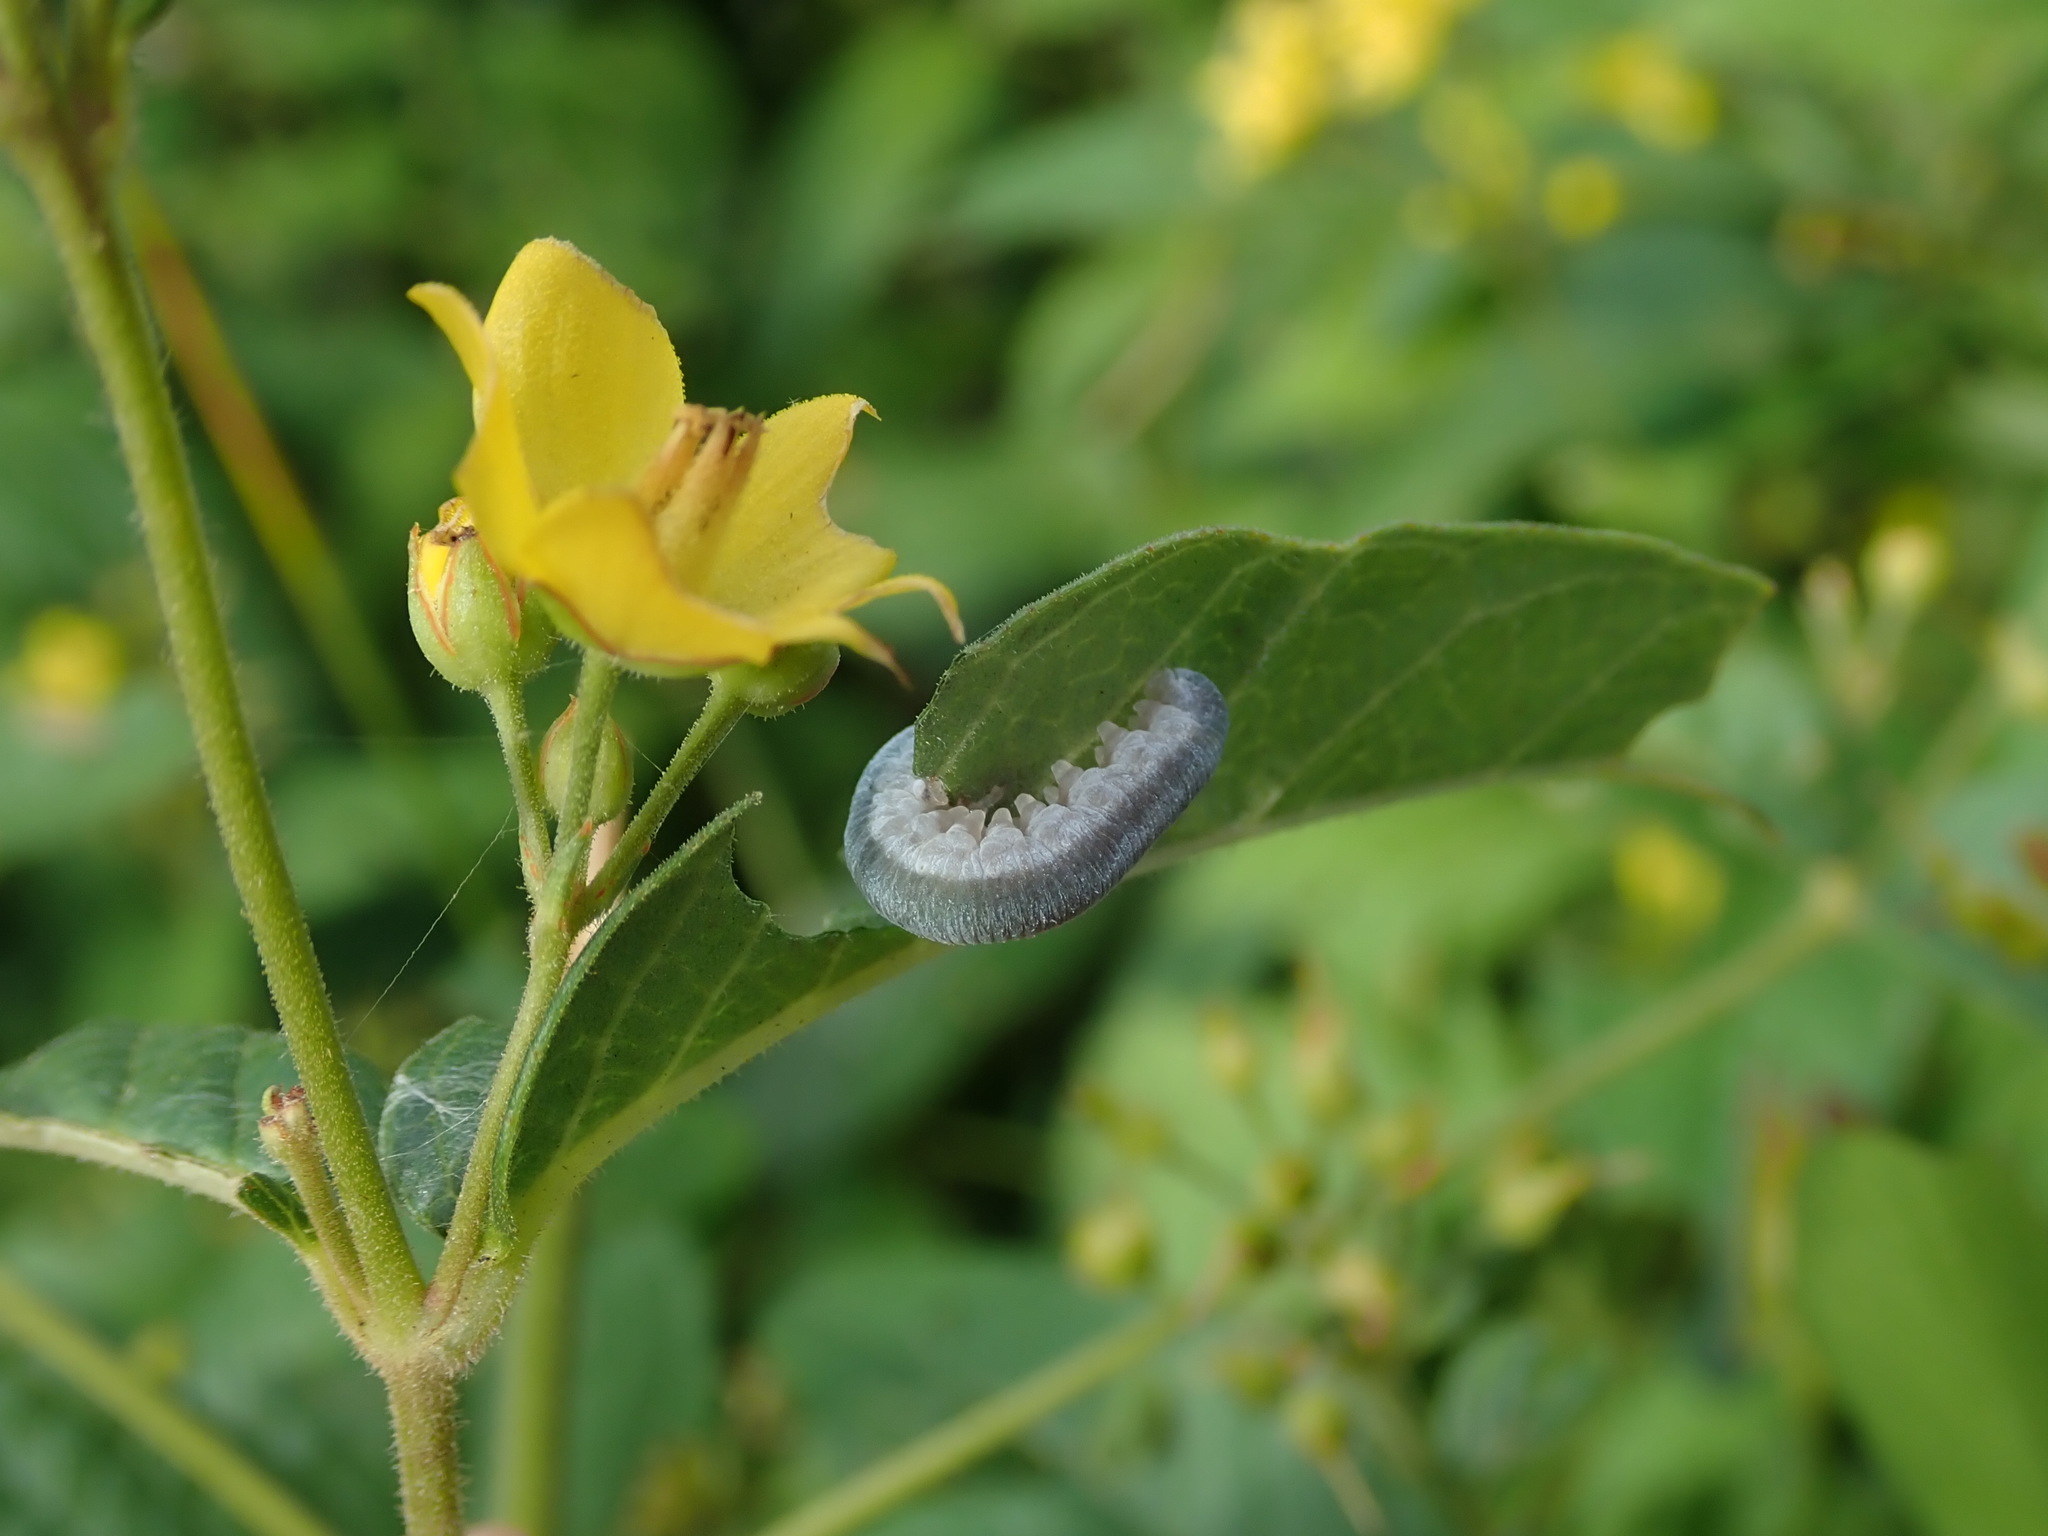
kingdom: Animalia
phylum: Arthropoda
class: Insecta
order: Hymenoptera
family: Tenthredinidae
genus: Monostegia
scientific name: Monostegia abdominalis
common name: Tenthredid wasp
